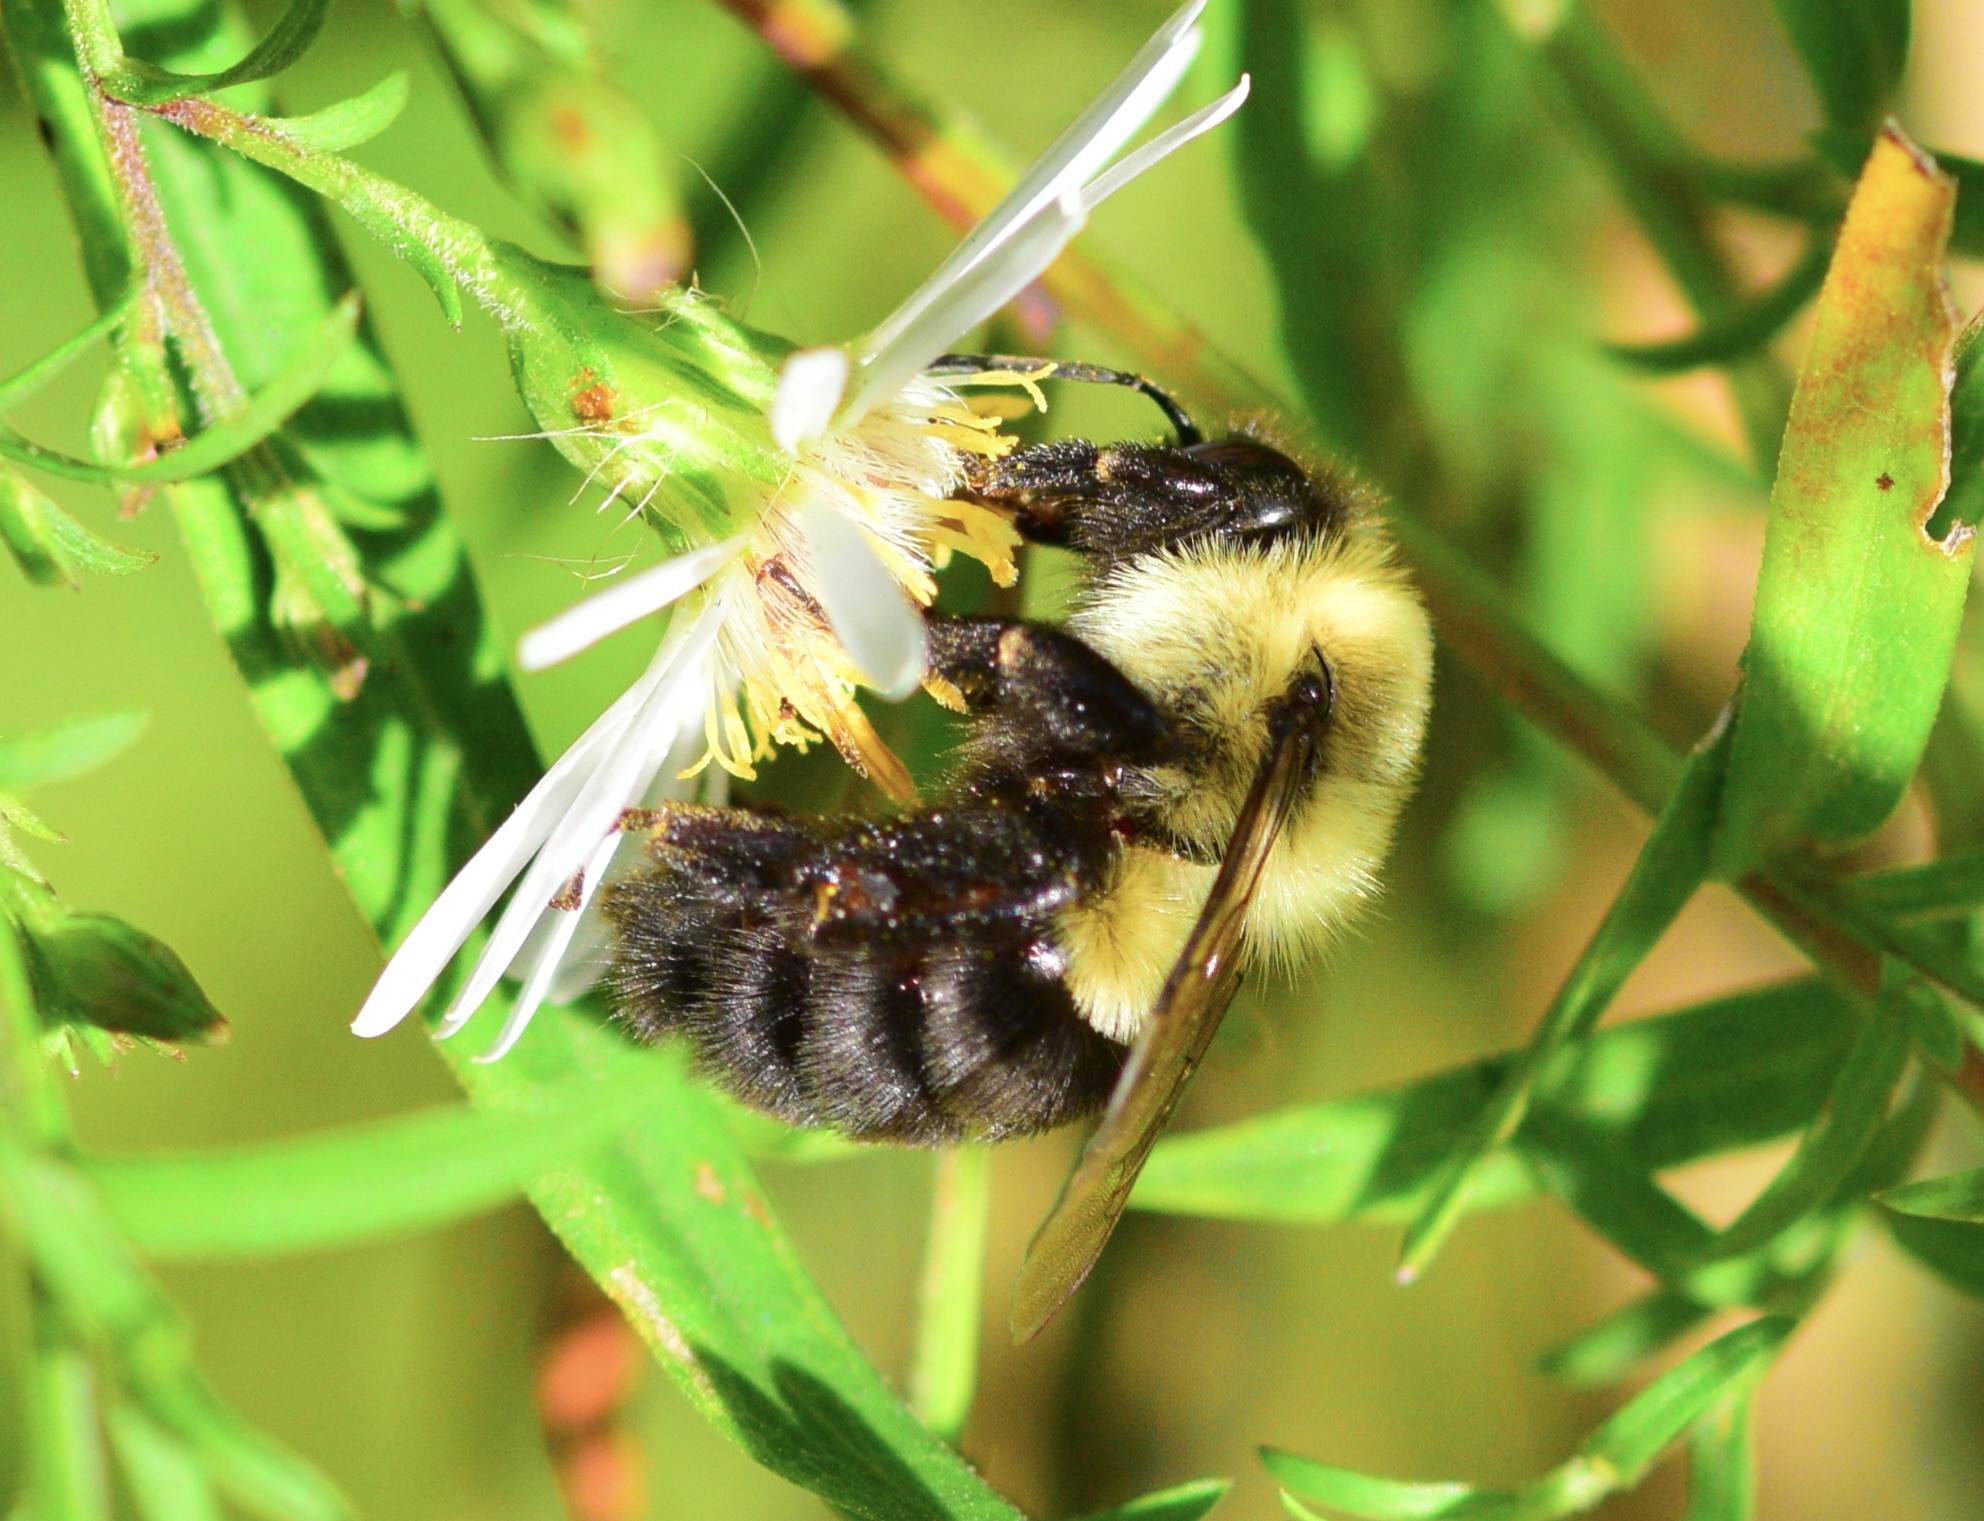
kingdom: Animalia
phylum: Arthropoda
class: Insecta
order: Hymenoptera
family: Apidae
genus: Bombus
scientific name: Bombus impatiens
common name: Common eastern bumble bee
